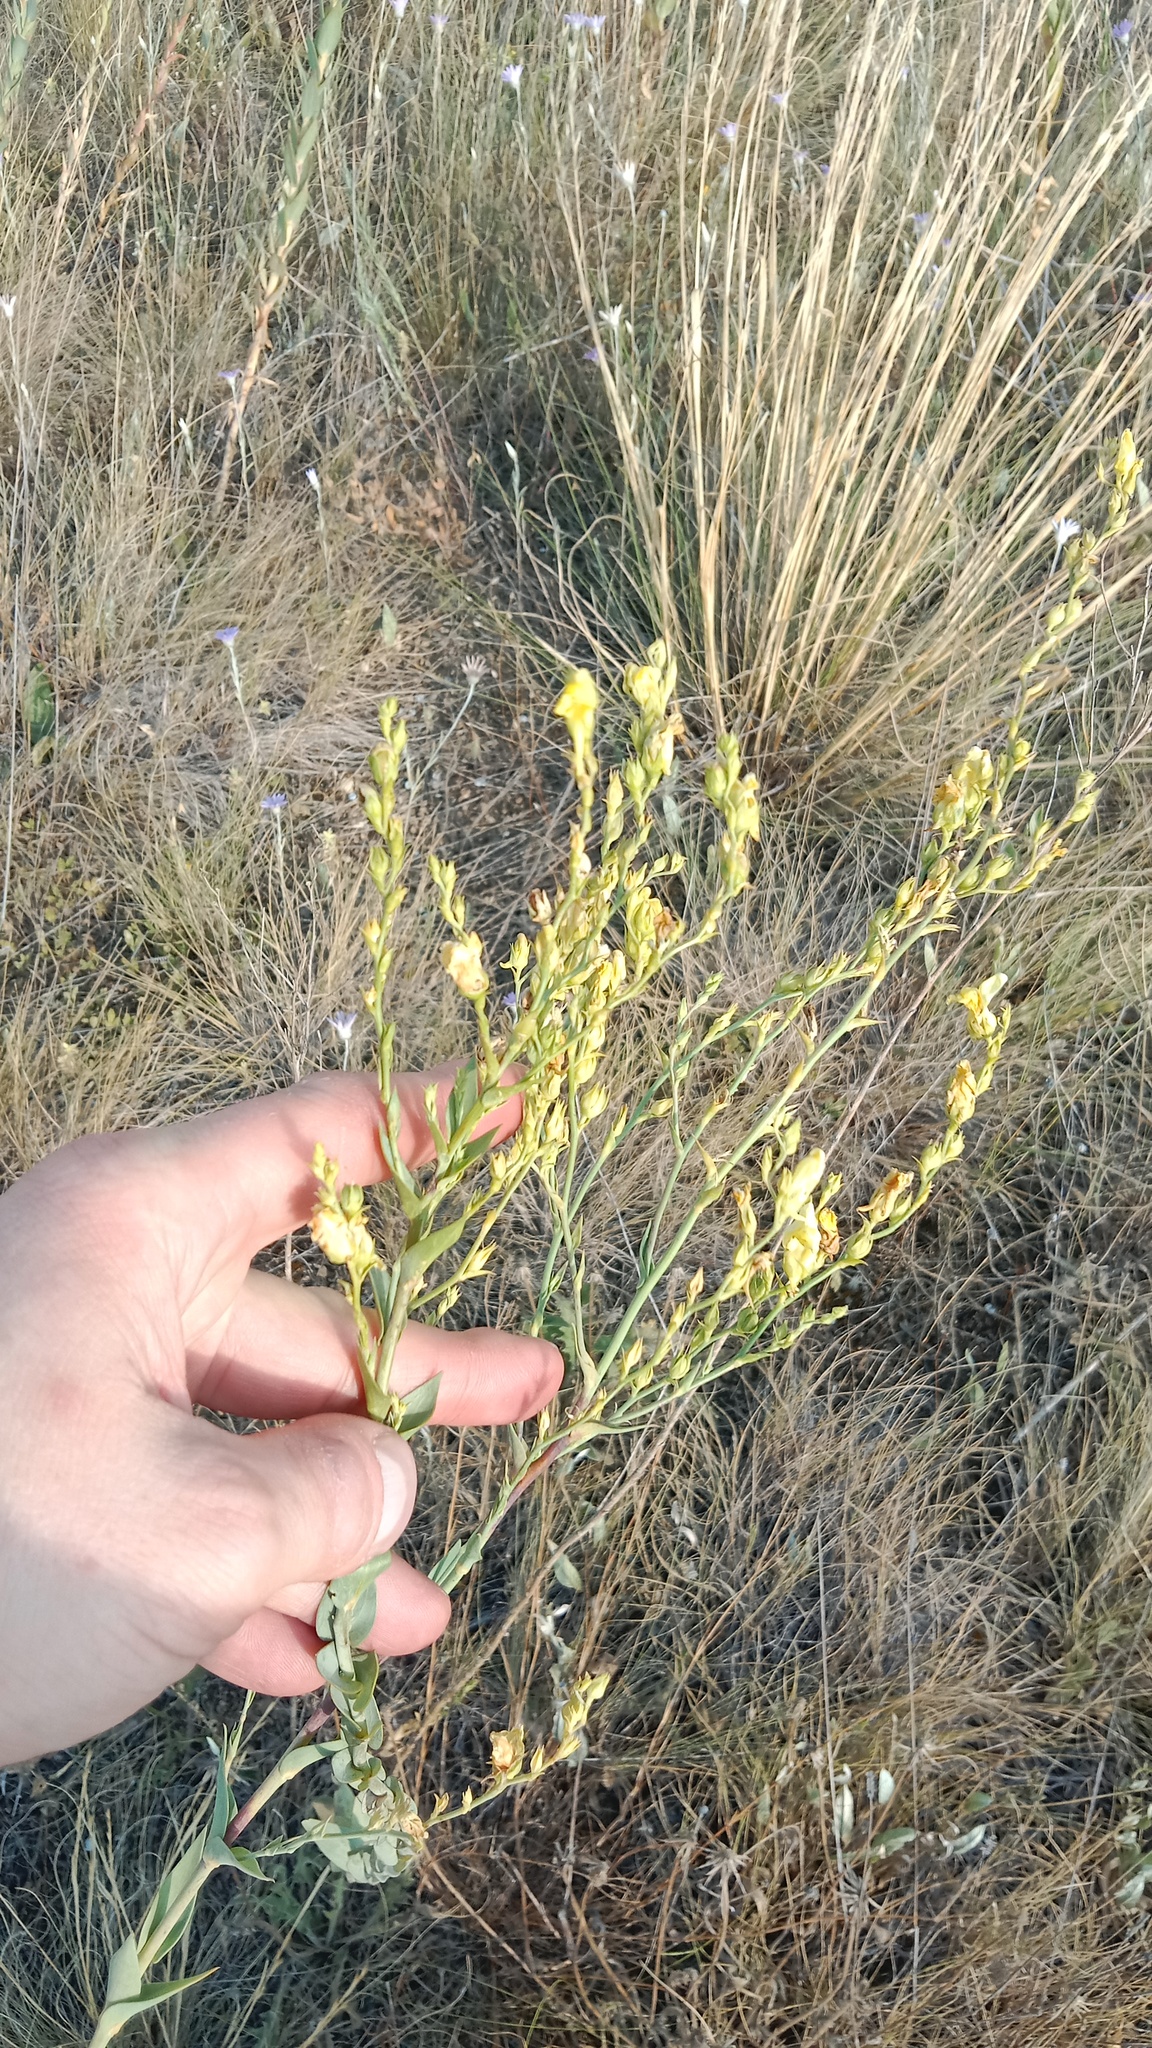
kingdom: Plantae
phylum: Tracheophyta
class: Magnoliopsida
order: Lamiales
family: Plantaginaceae
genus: Linaria
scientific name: Linaria genistifolia
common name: Broomleaf toadflax
